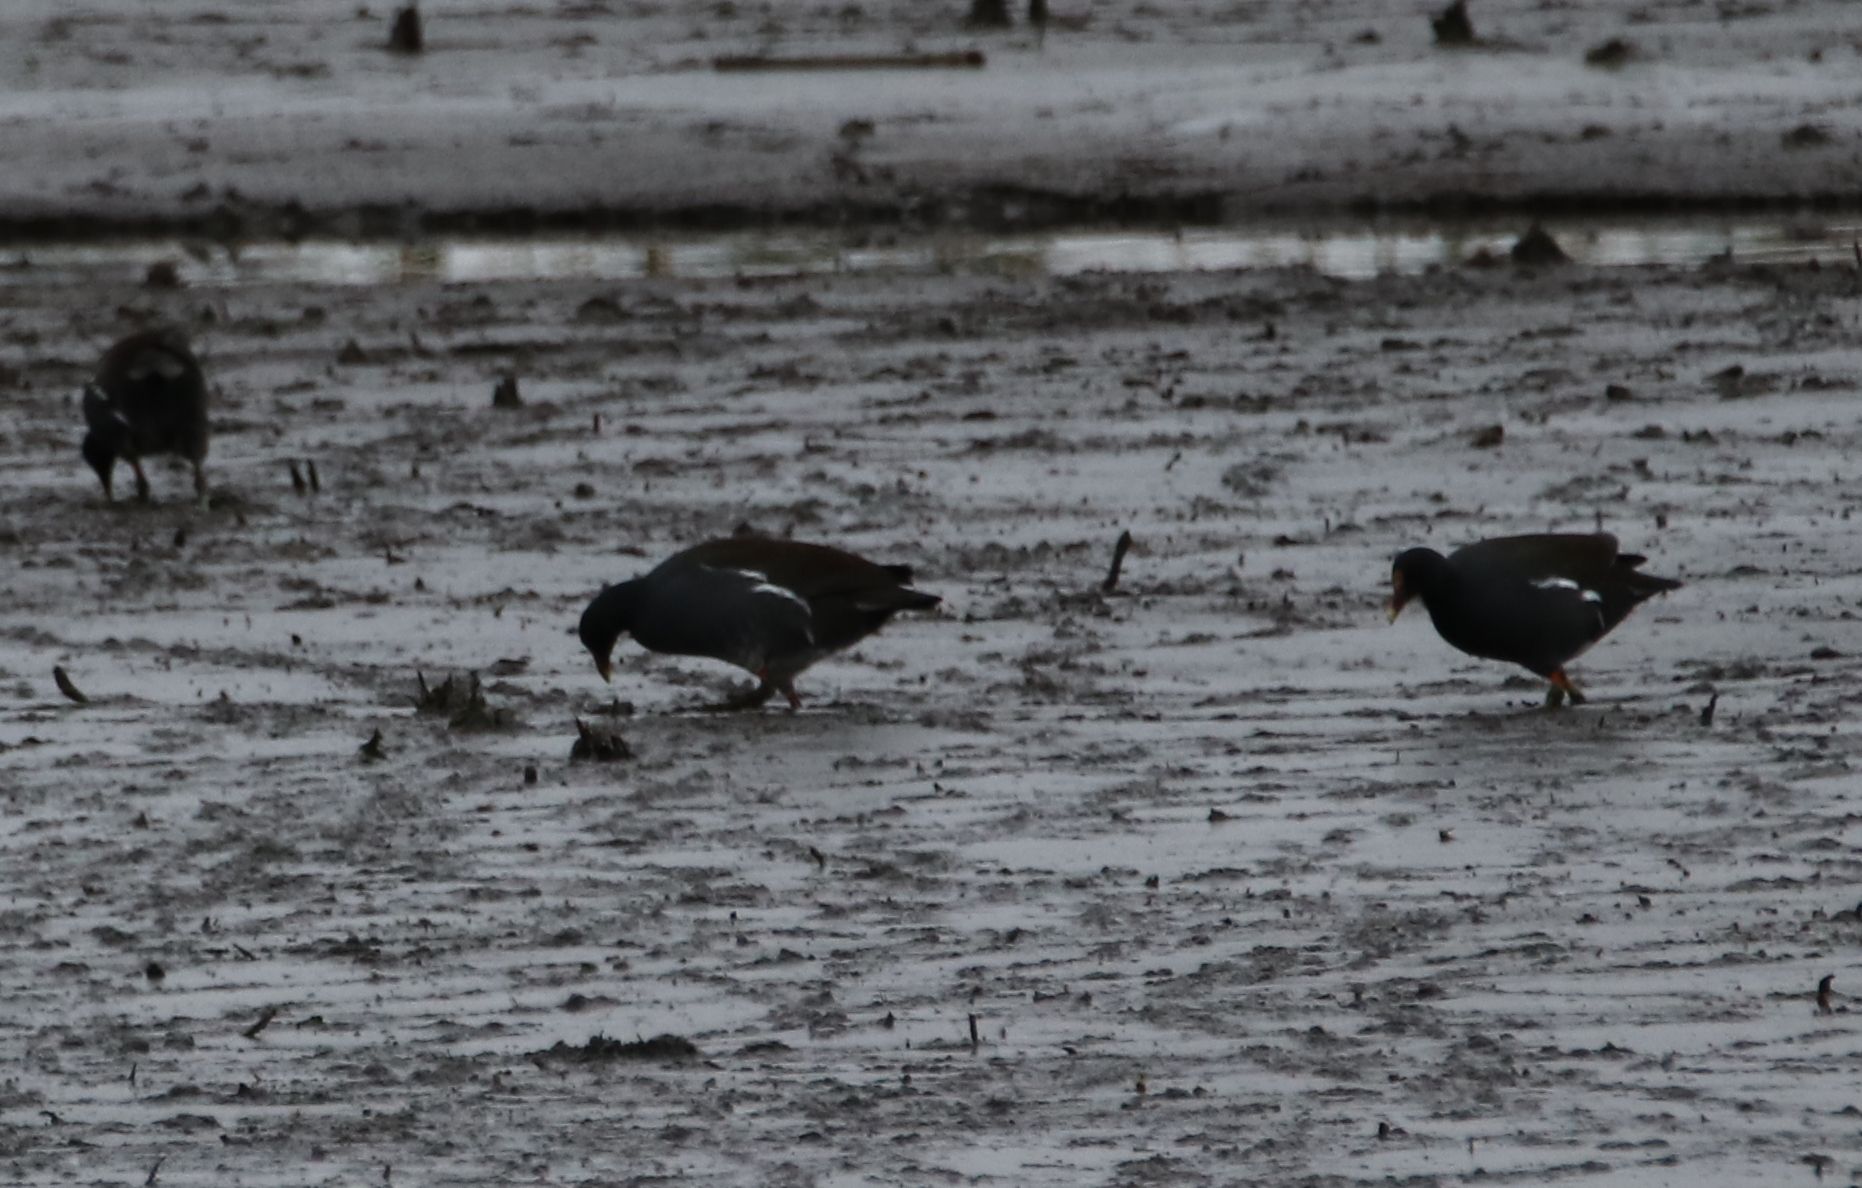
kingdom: Animalia
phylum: Chordata
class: Aves
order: Gruiformes
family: Rallidae
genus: Gallinula
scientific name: Gallinula chloropus
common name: Common moorhen
